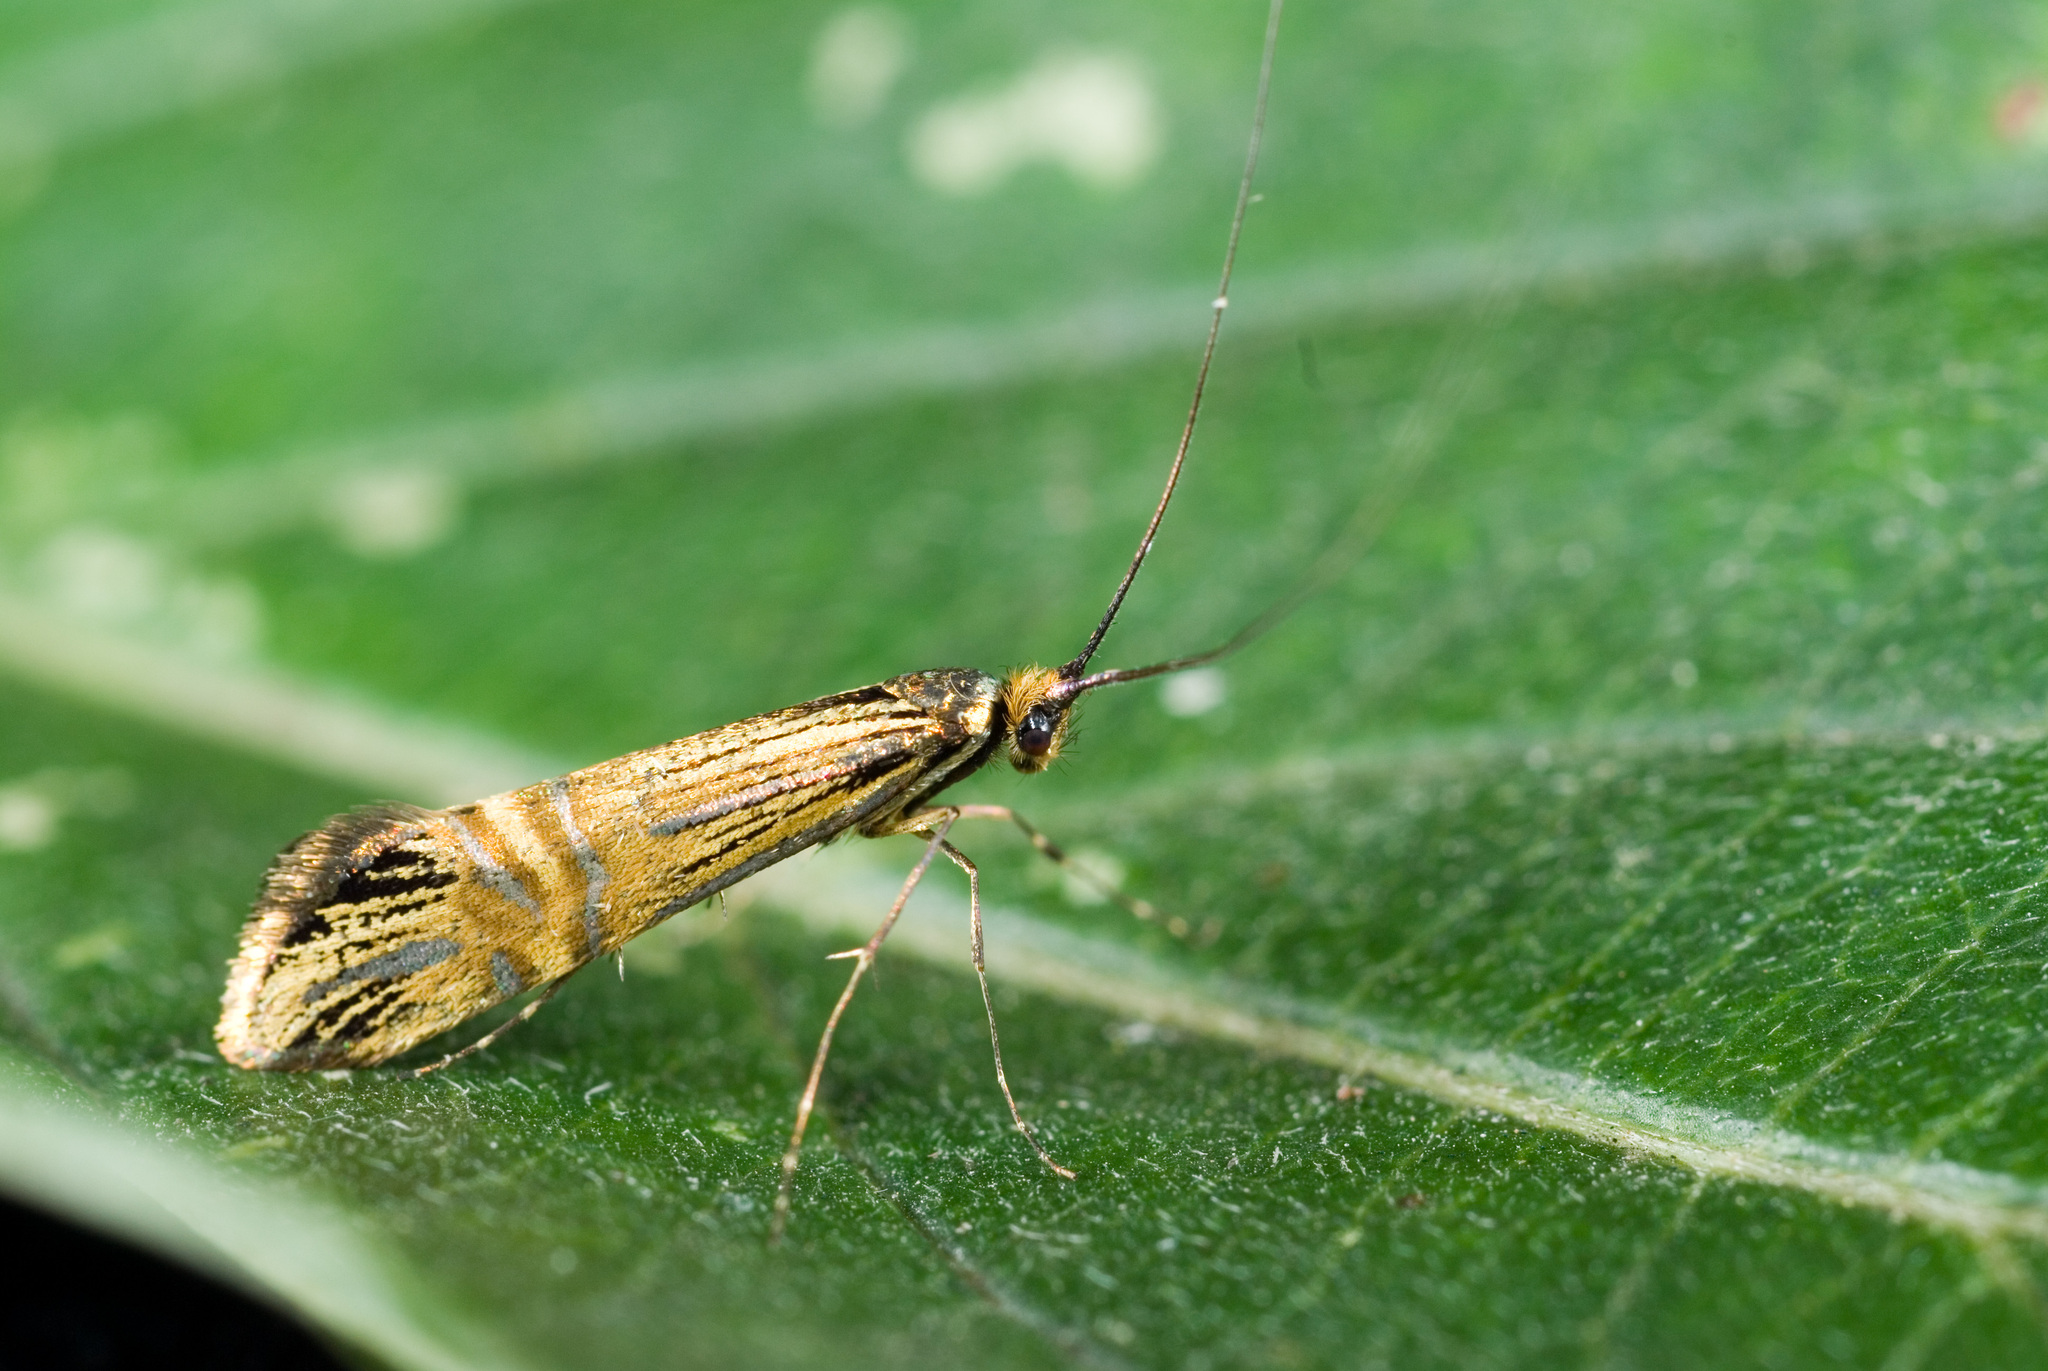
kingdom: Animalia
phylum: Arthropoda
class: Insecta
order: Lepidoptera
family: Adelidae
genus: Nemophora
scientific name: Nemophora uncella
